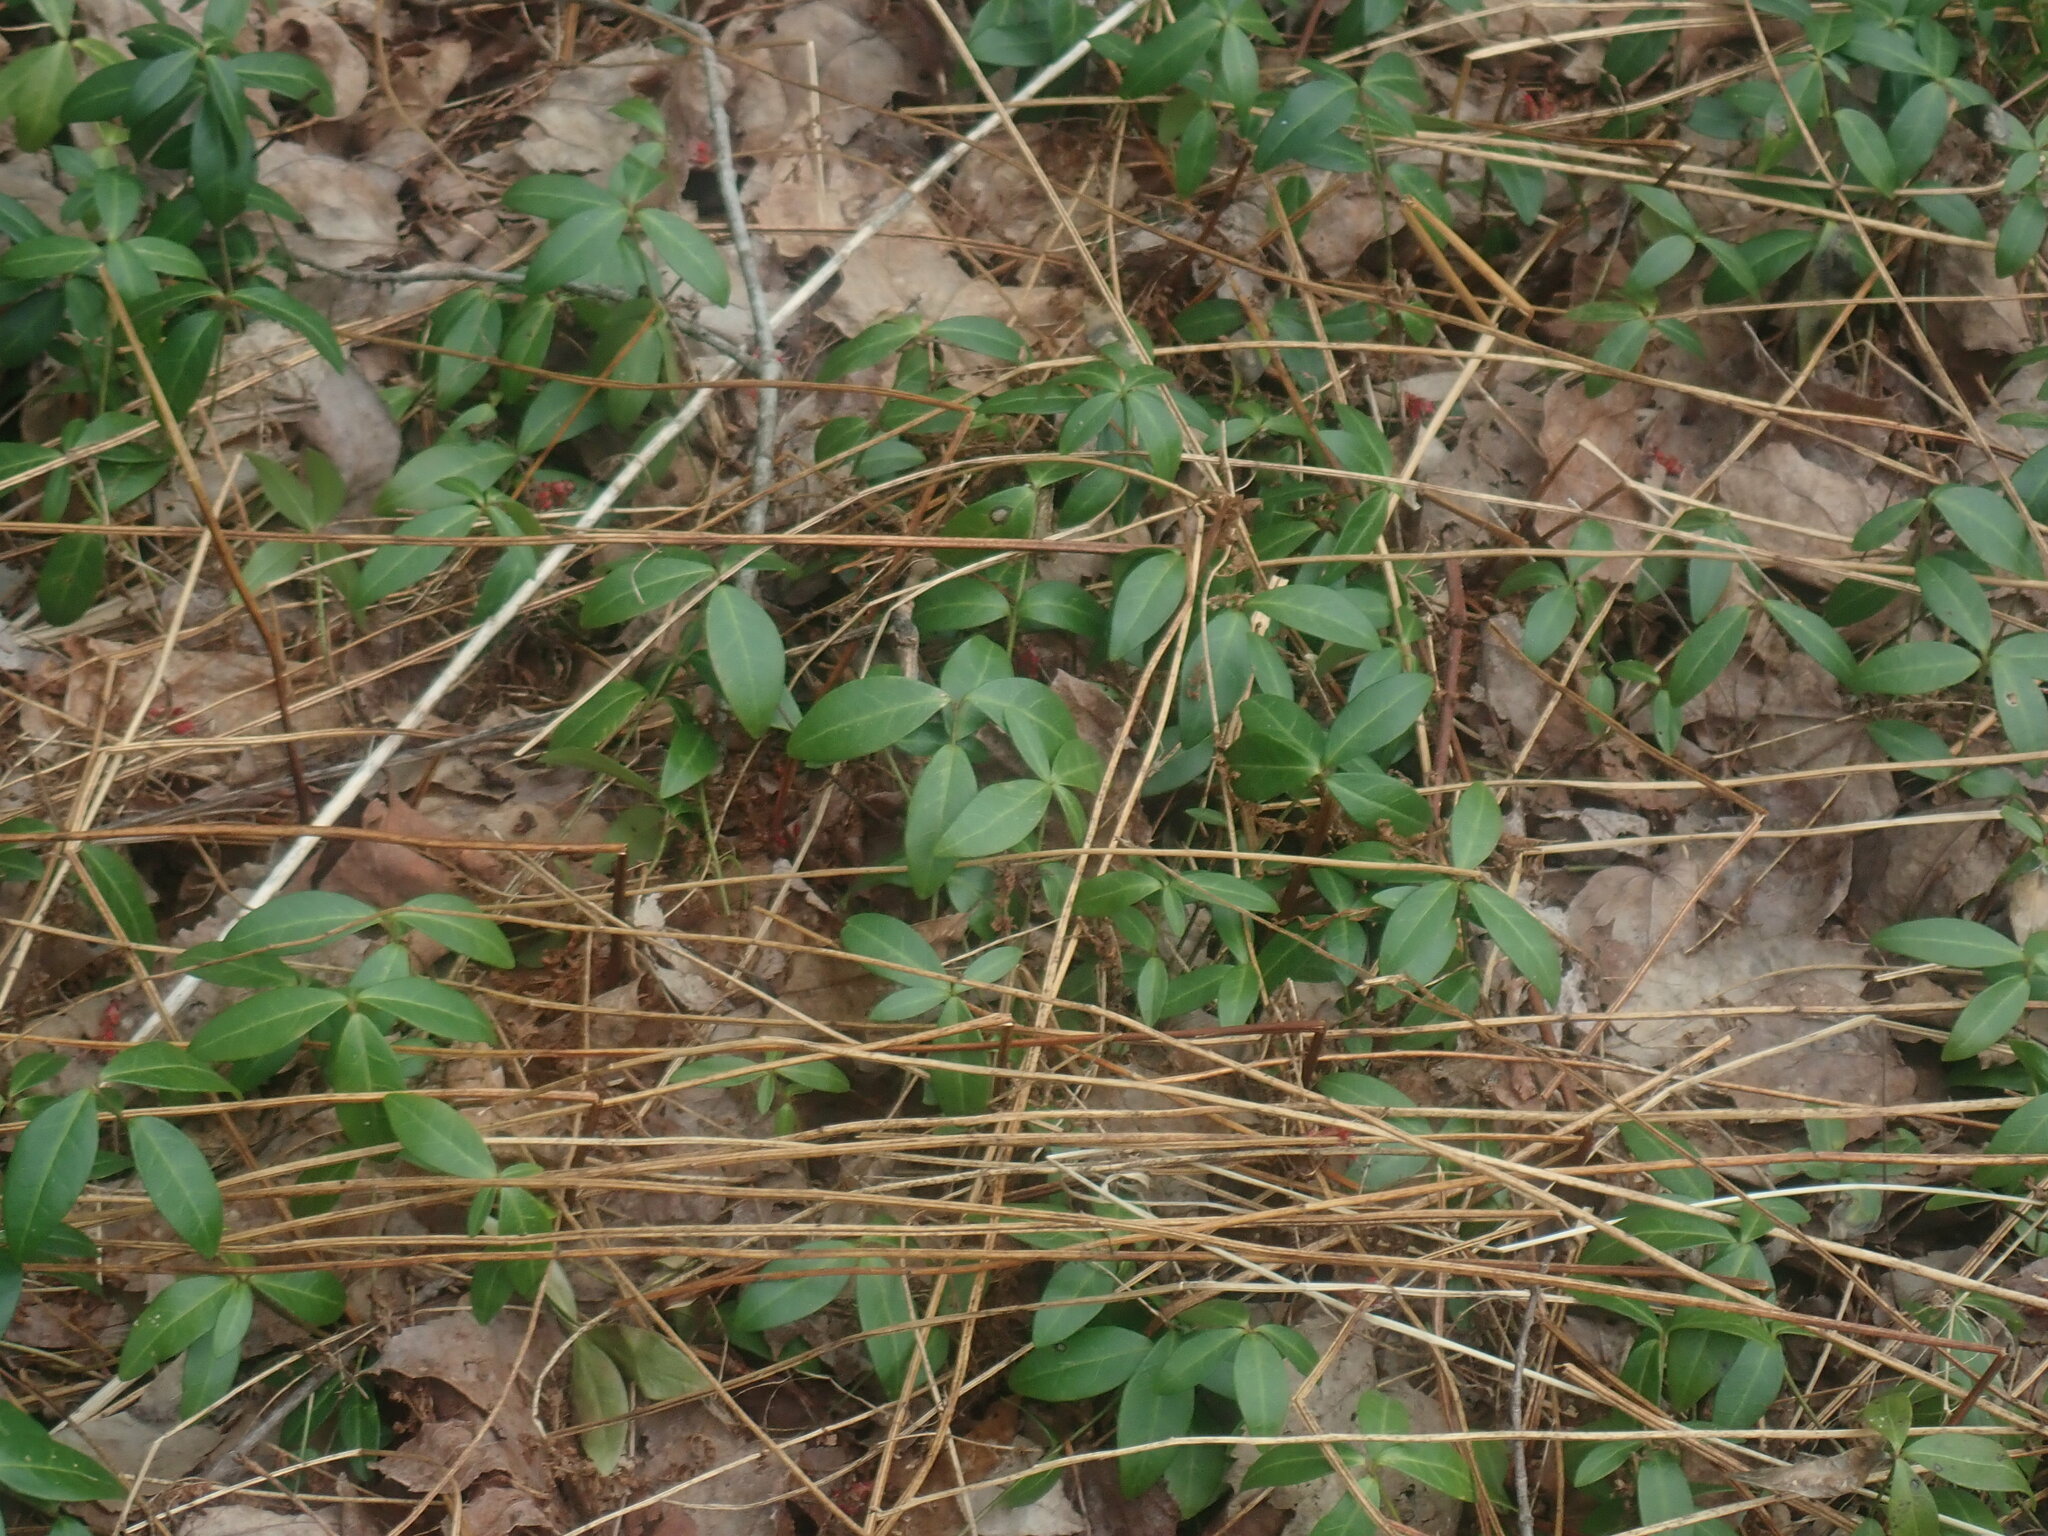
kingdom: Plantae
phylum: Tracheophyta
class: Magnoliopsida
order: Gentianales
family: Apocynaceae
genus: Vinca
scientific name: Vinca minor
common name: Lesser periwinkle
